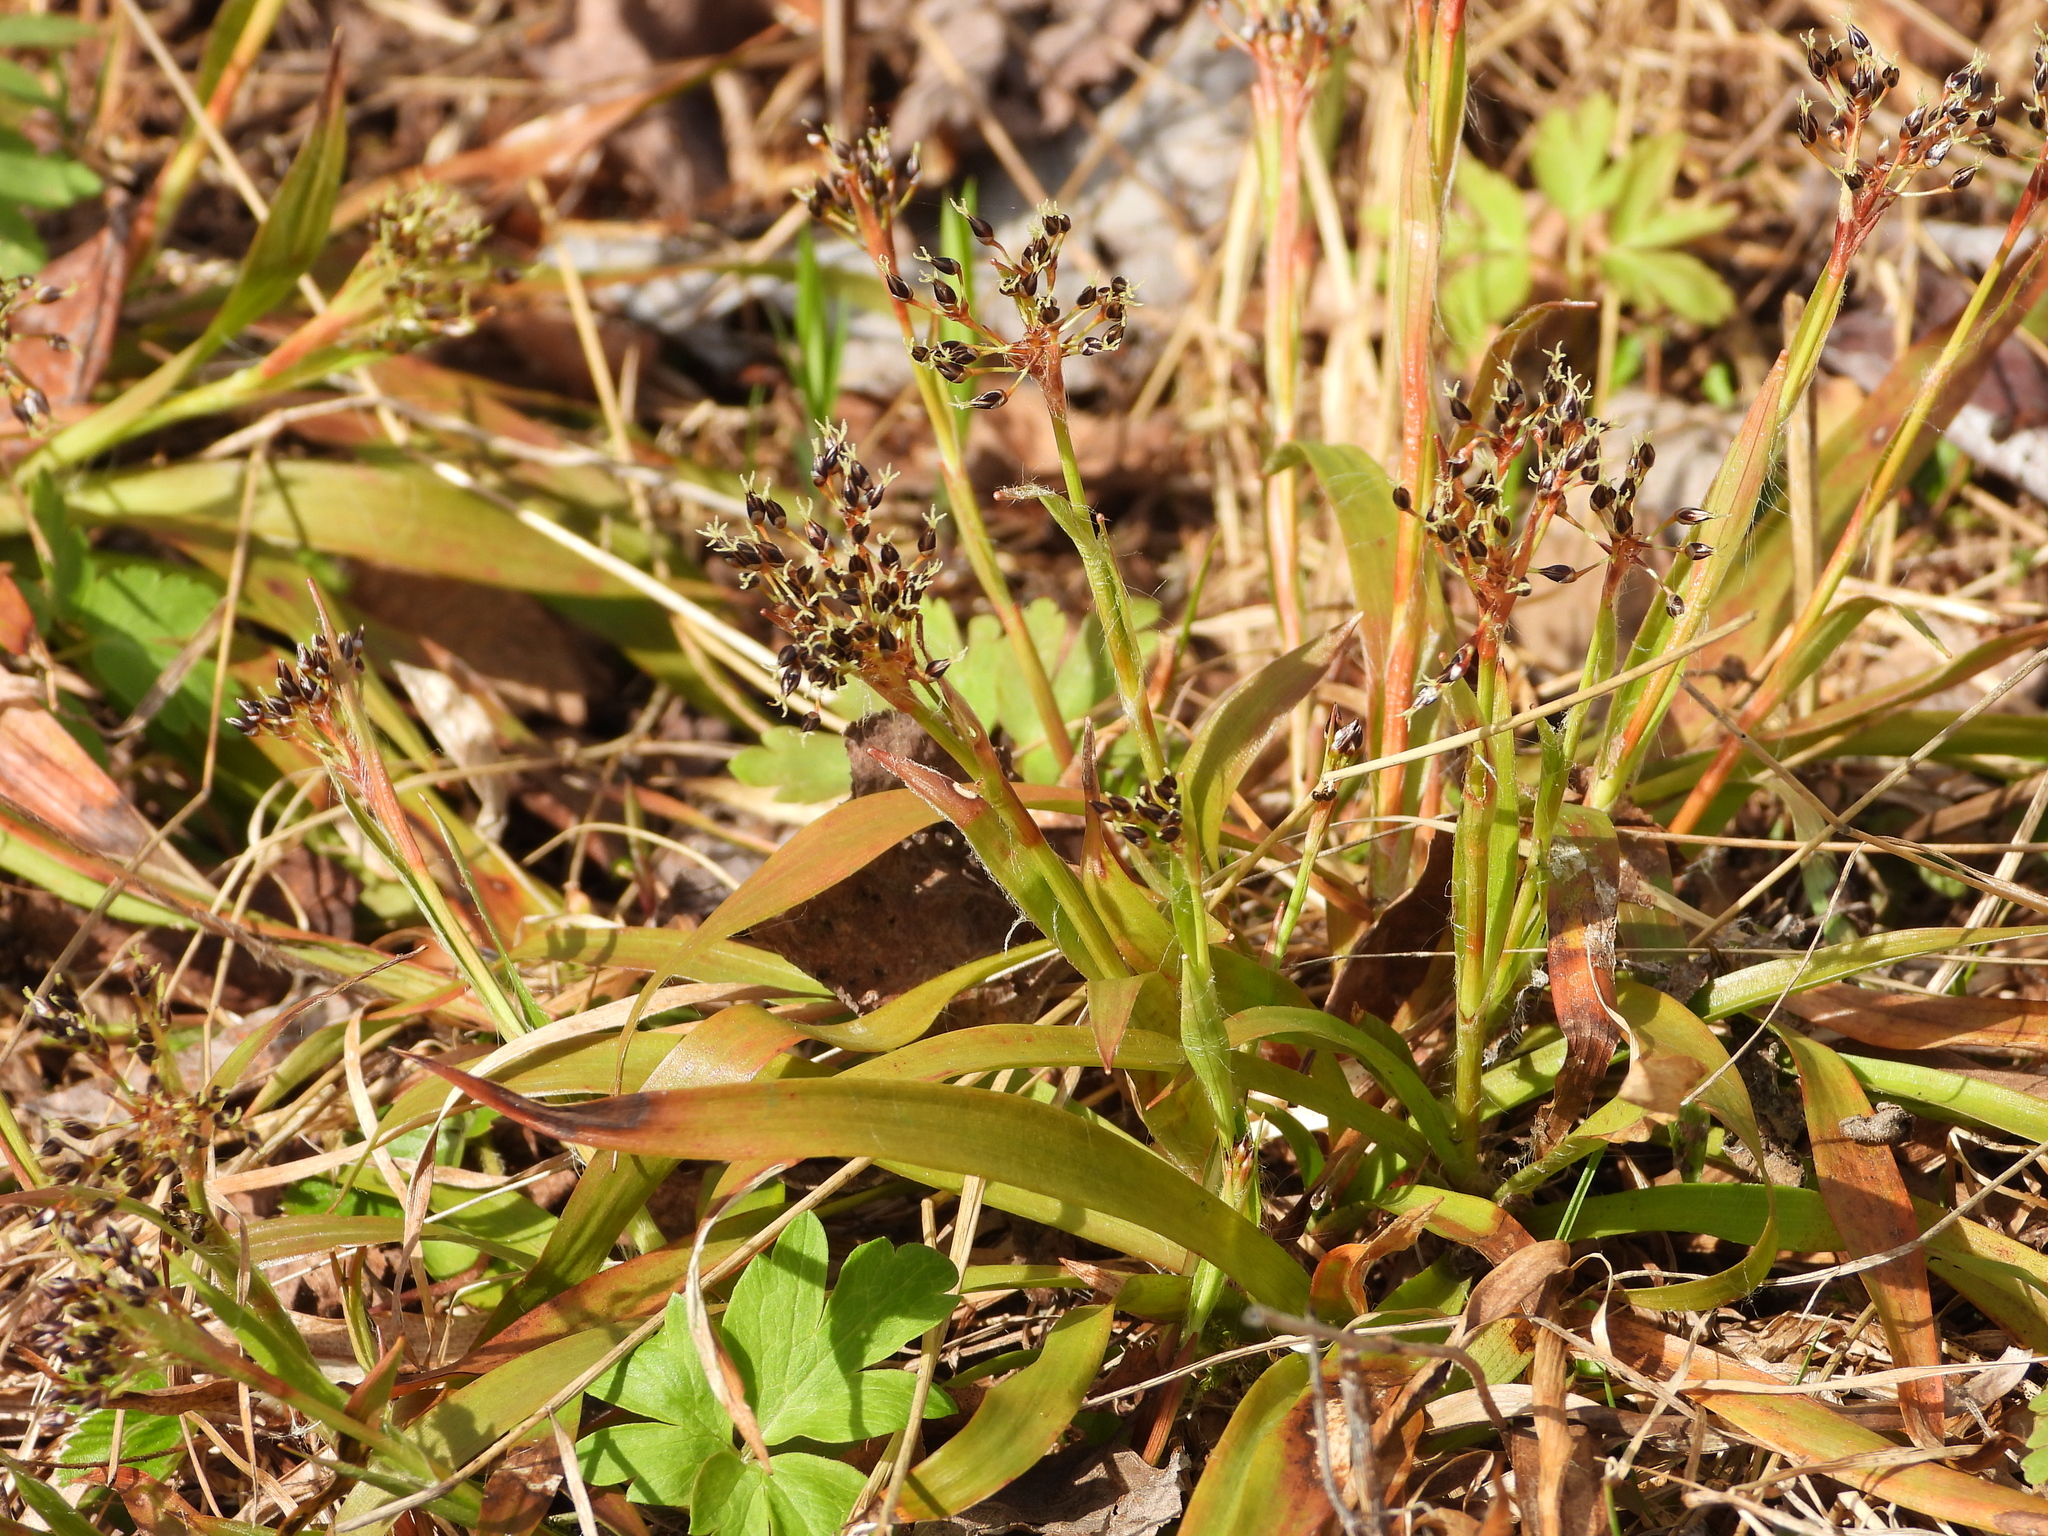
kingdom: Plantae
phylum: Tracheophyta
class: Liliopsida
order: Poales
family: Juncaceae
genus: Luzula
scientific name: Luzula pilosa
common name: Hairy wood-rush
